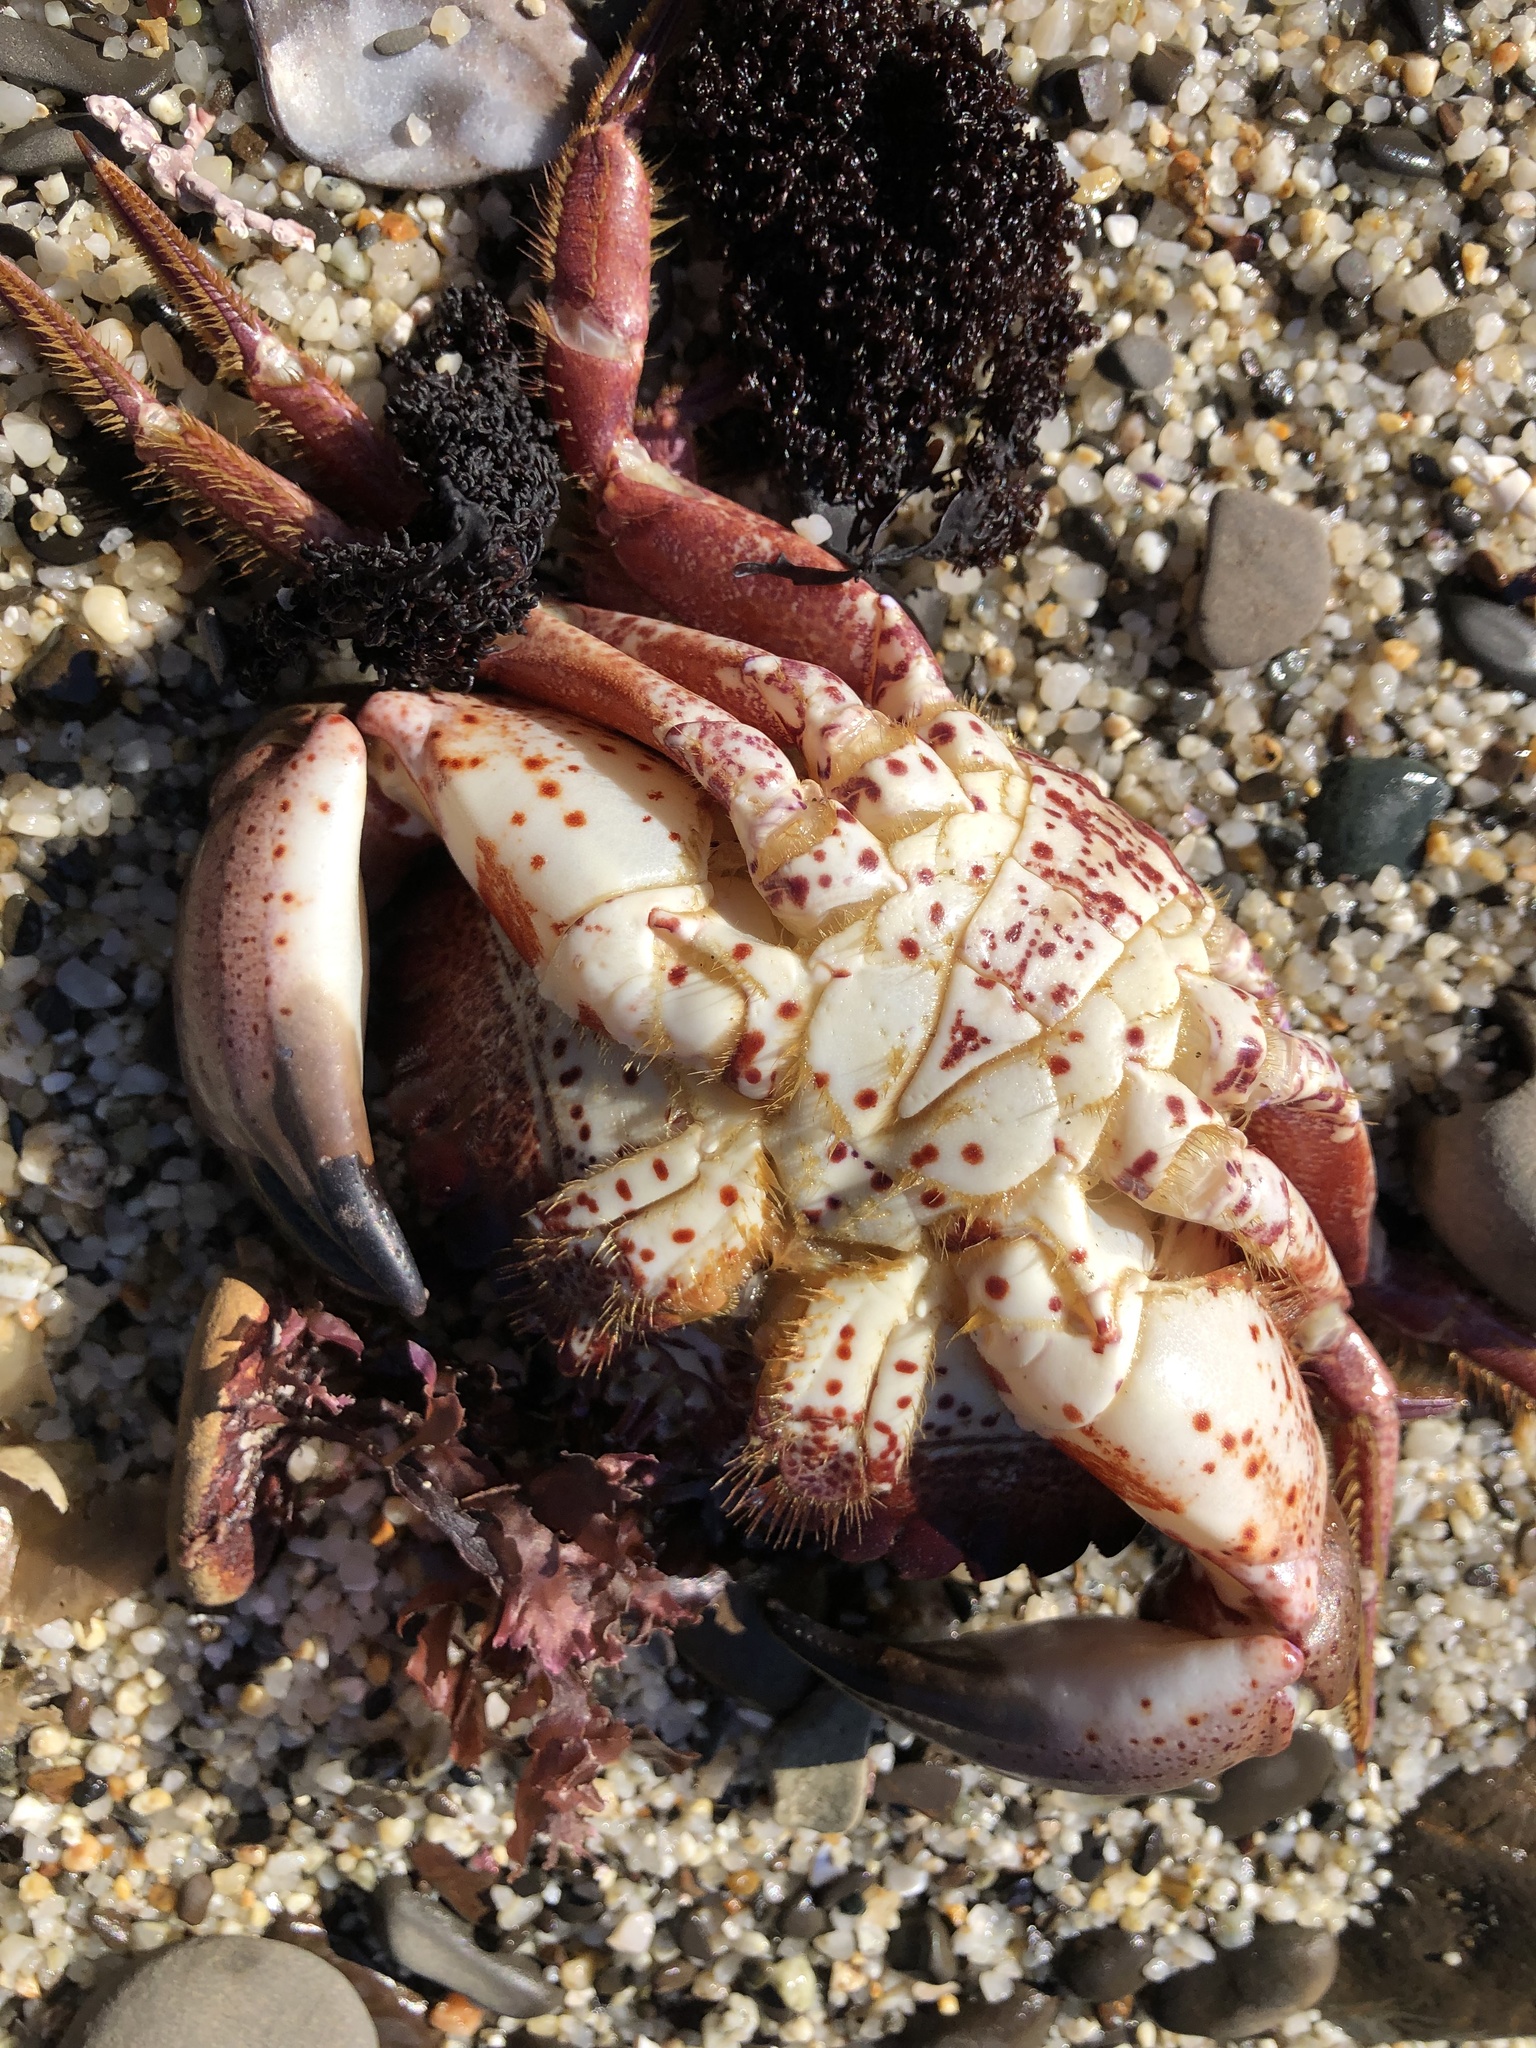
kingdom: Animalia
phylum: Arthropoda
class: Malacostraca
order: Decapoda
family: Cancridae
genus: Romaleon
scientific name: Romaleon antennarium
